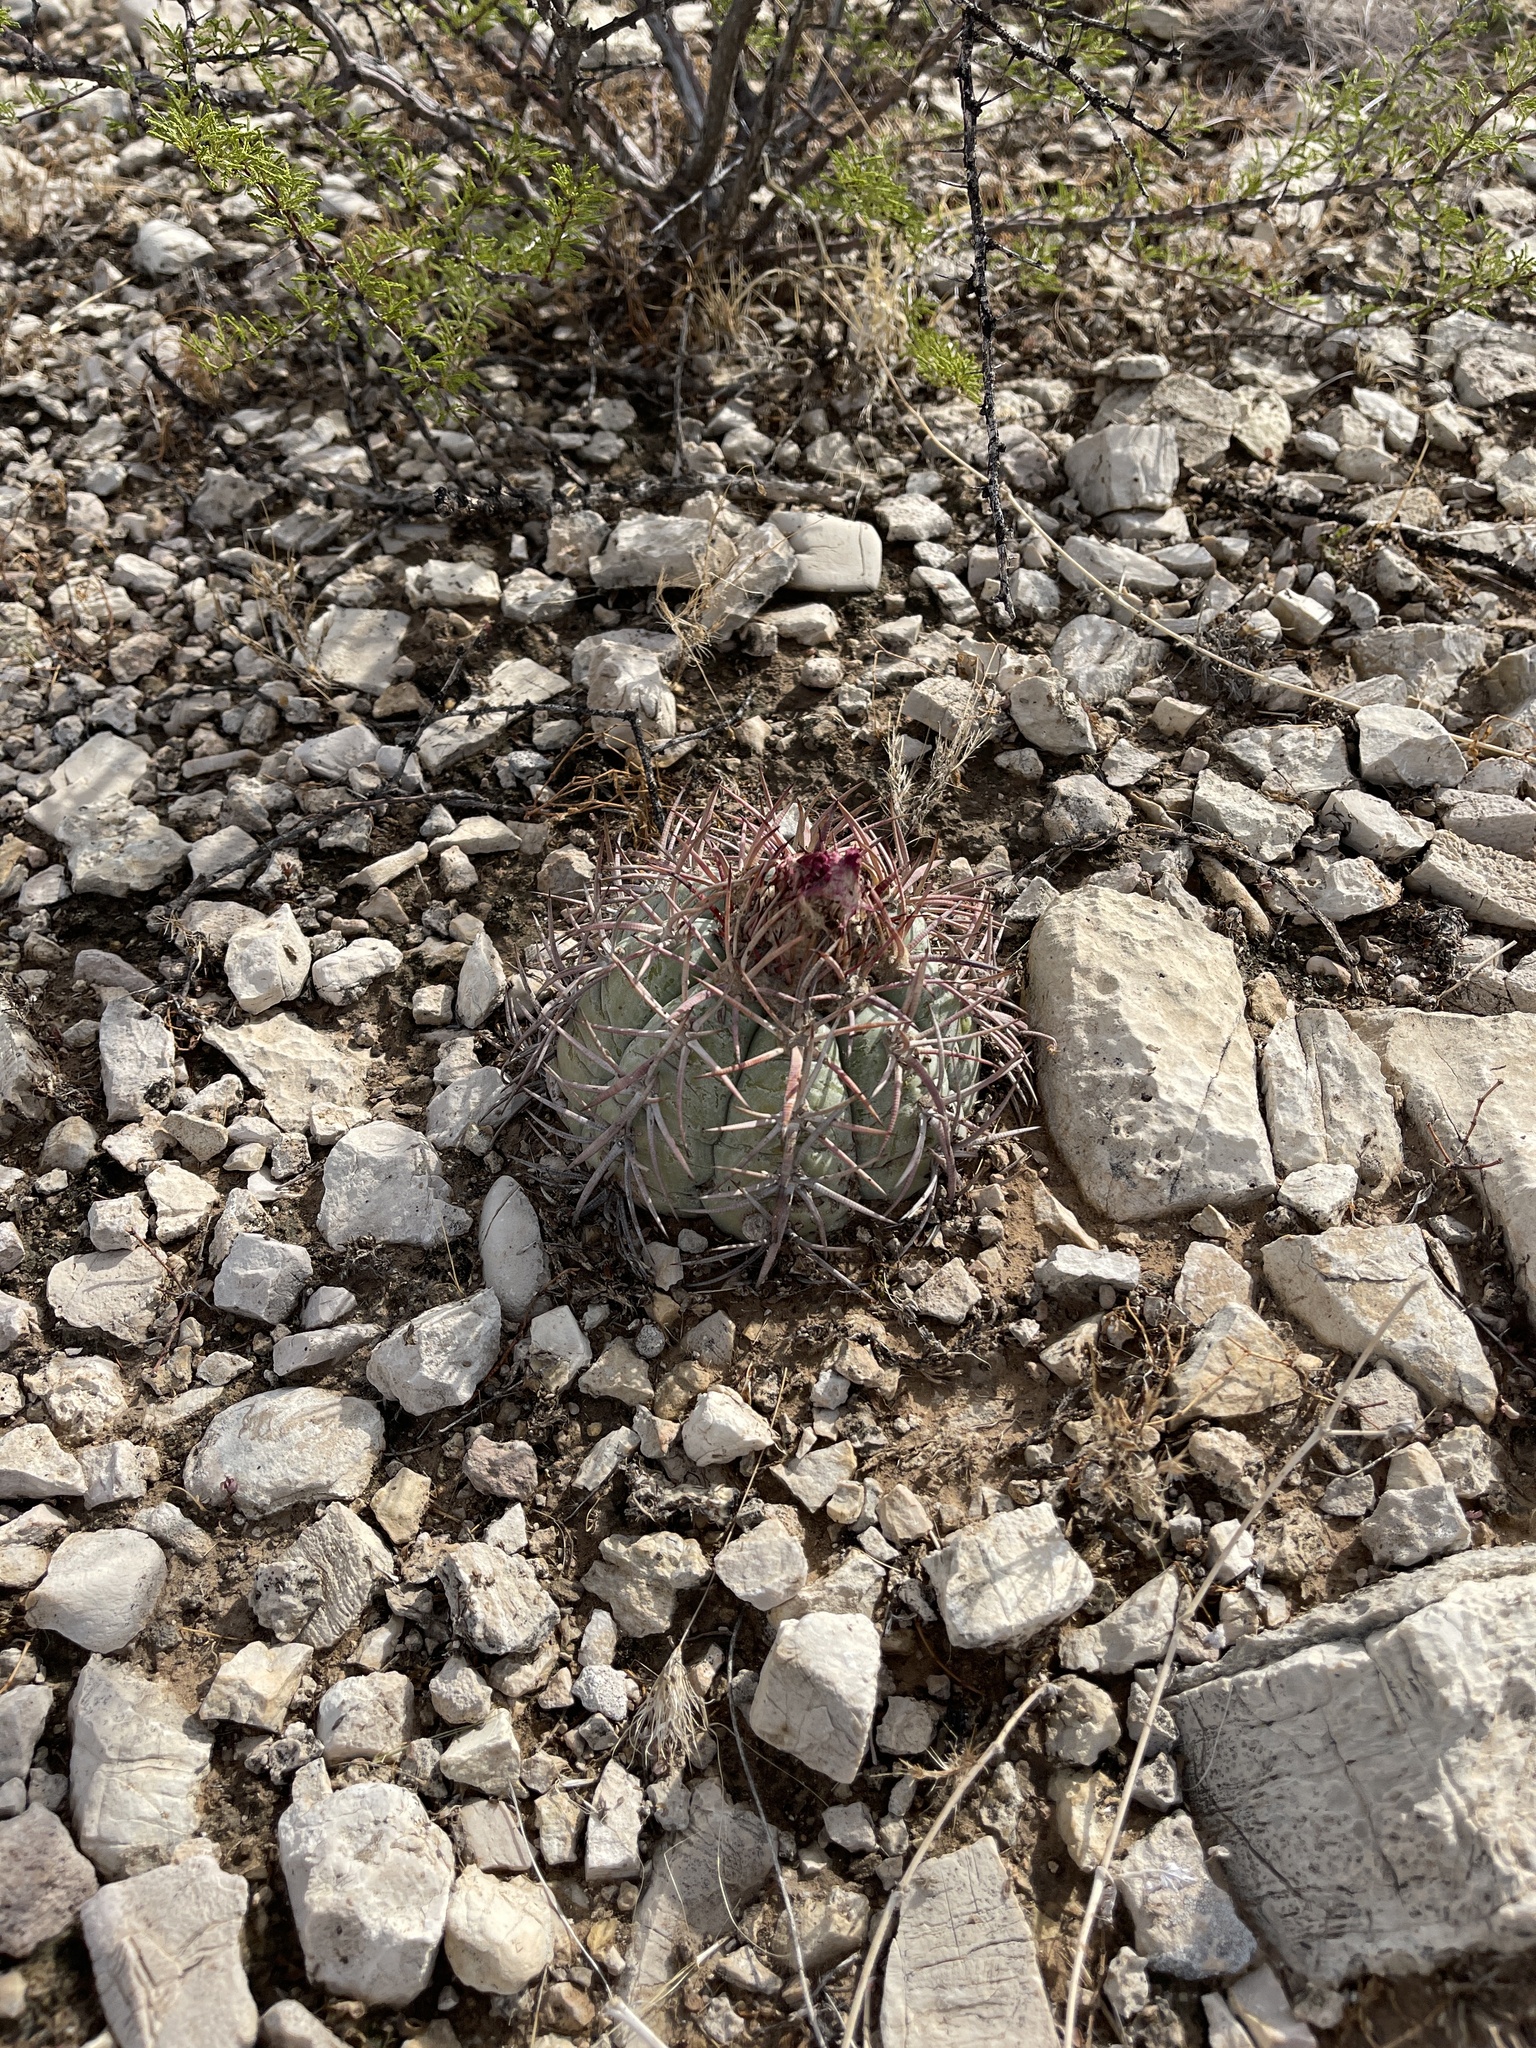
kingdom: Plantae
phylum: Tracheophyta
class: Magnoliopsida
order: Caryophyllales
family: Cactaceae
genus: Echinocactus
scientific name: Echinocactus horizonthalonius
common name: Devilshead
